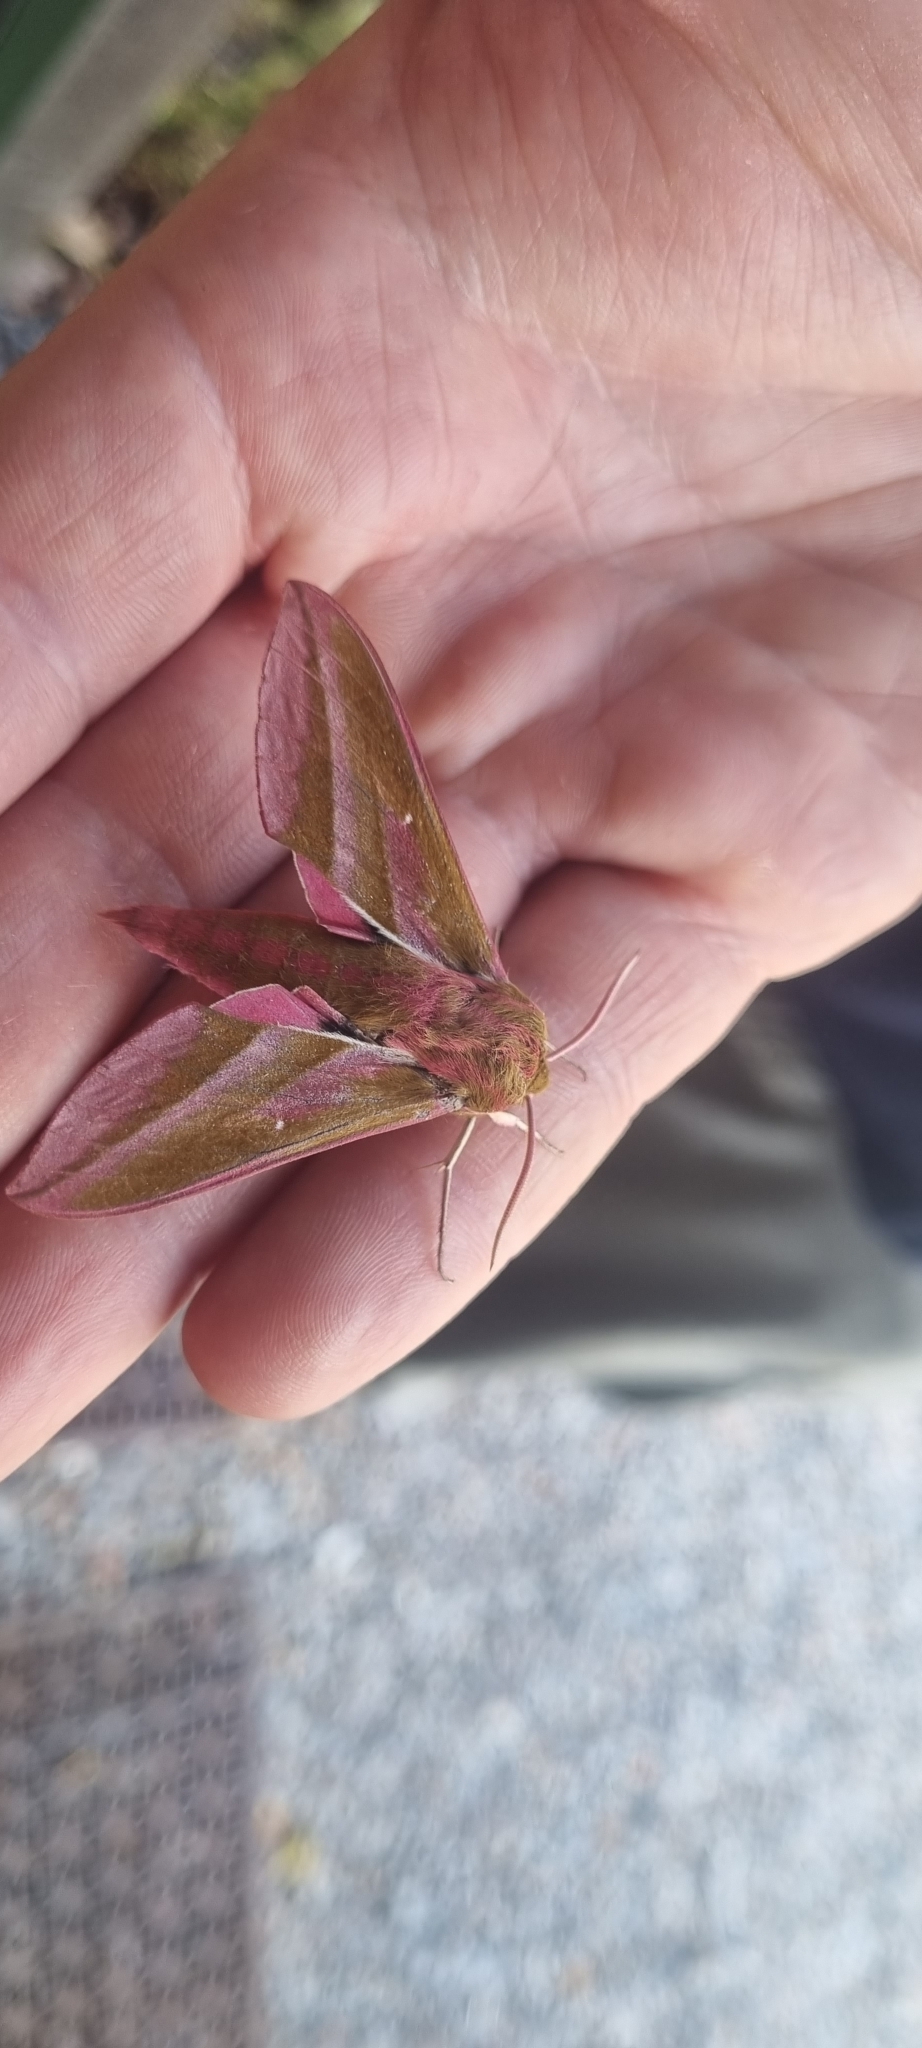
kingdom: Animalia
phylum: Arthropoda
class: Insecta
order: Lepidoptera
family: Sphingidae
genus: Deilephila
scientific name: Deilephila elpenor
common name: Elephant hawk-moth
